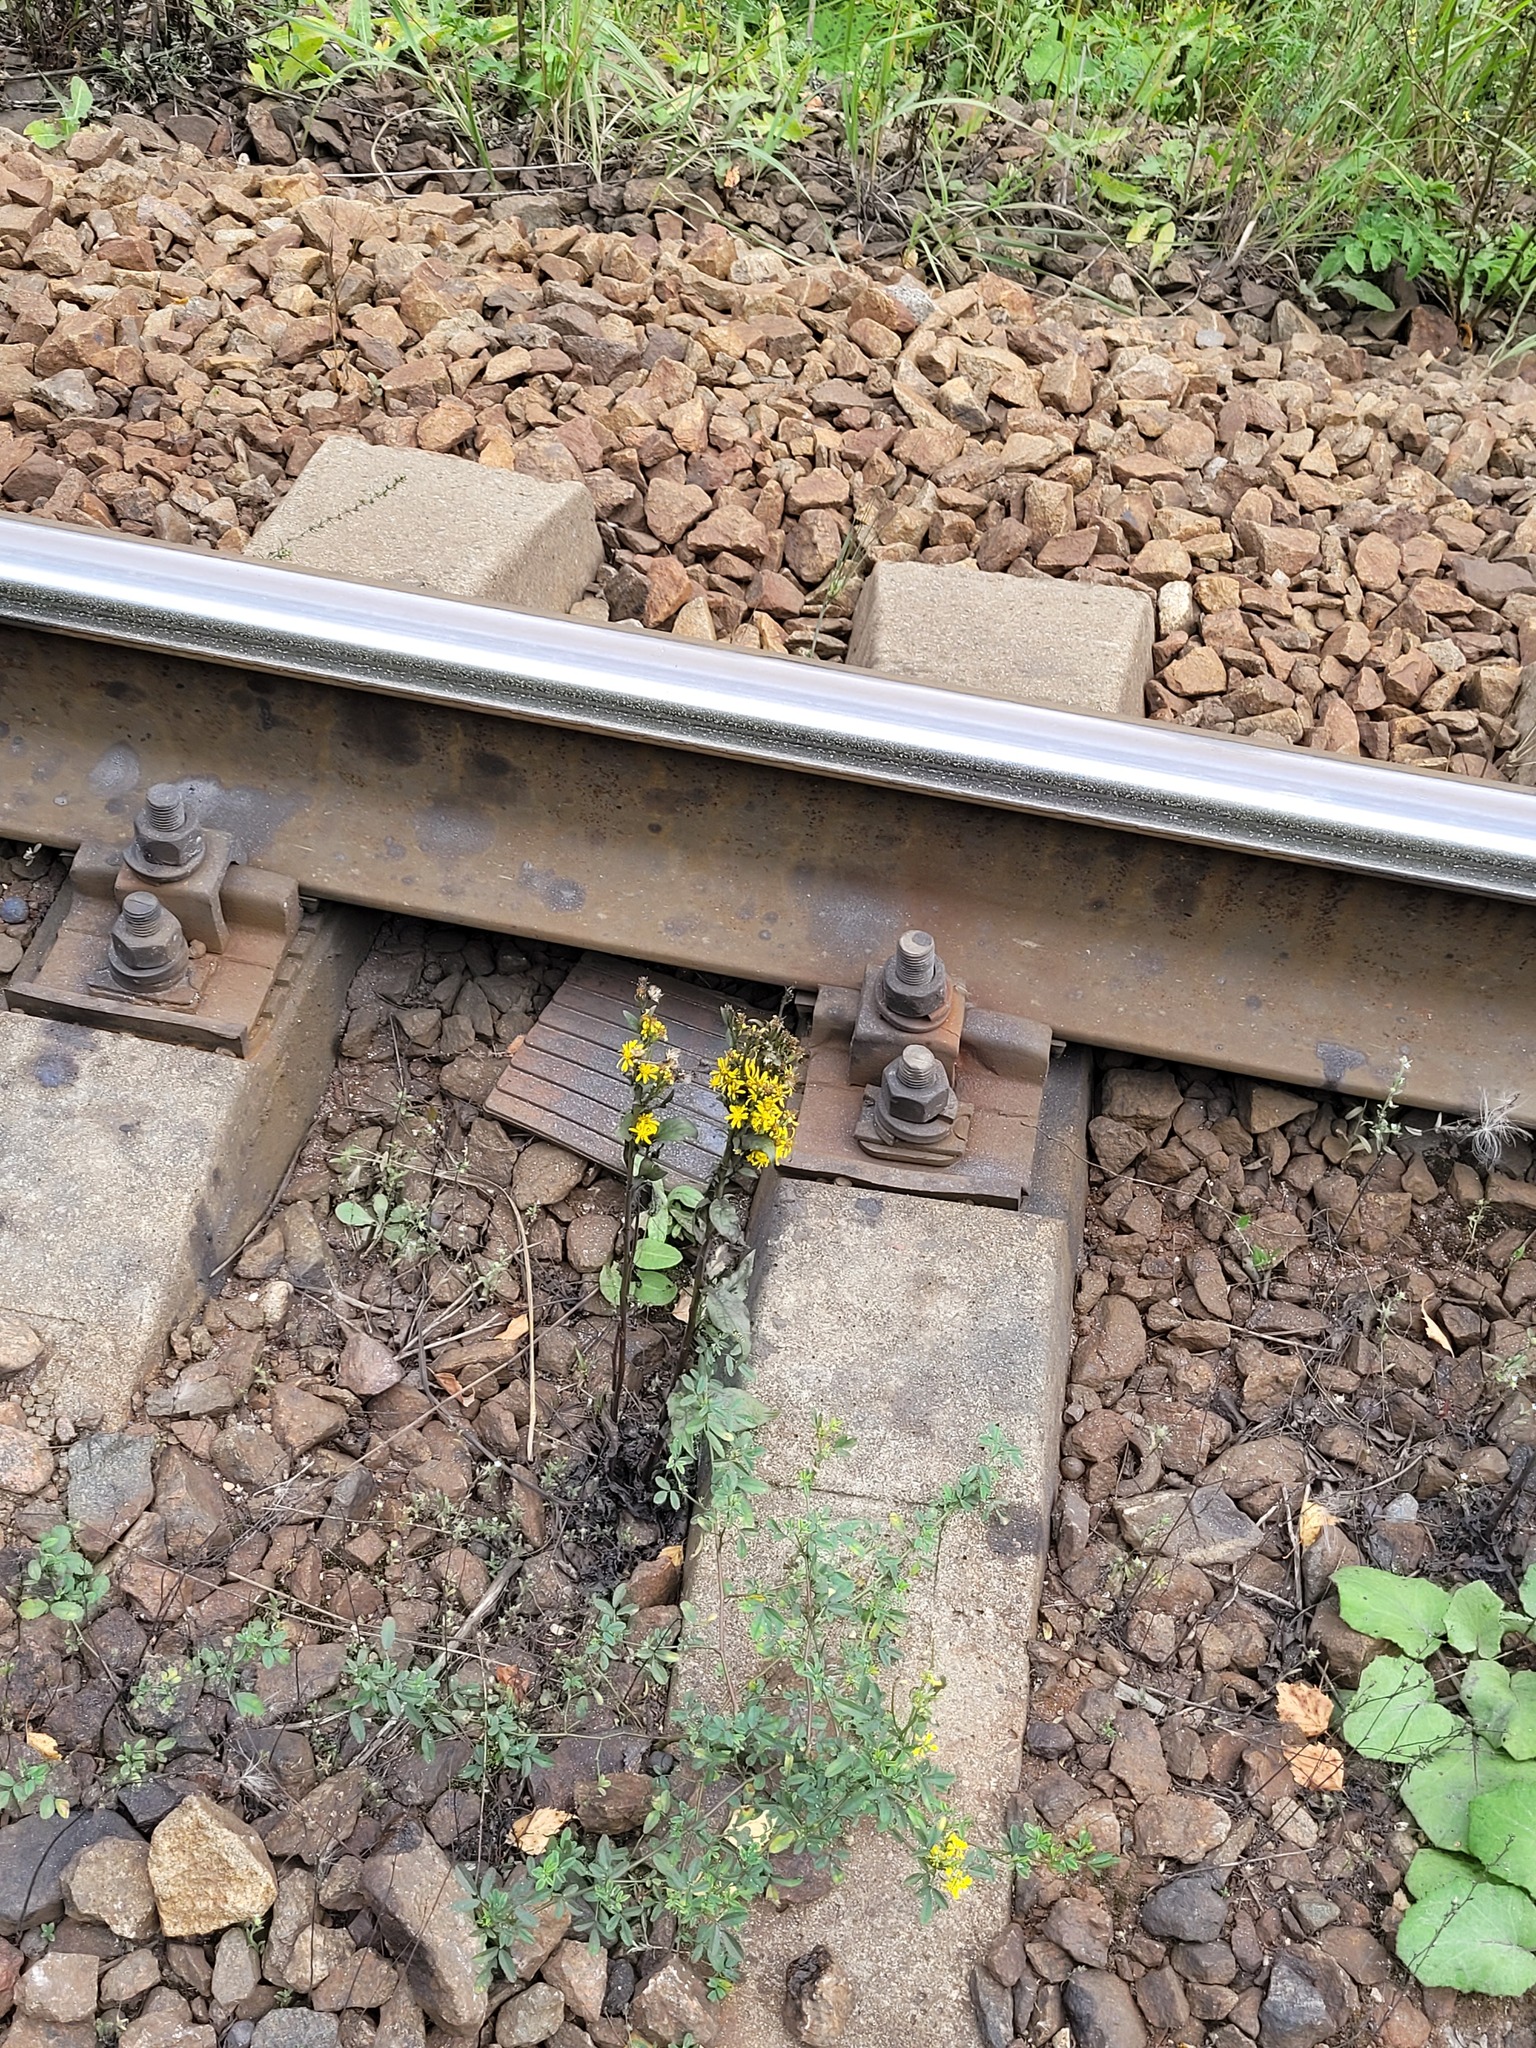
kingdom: Plantae
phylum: Tracheophyta
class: Magnoliopsida
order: Asterales
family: Asteraceae
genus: Solidago
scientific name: Solidago virgaurea
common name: Goldenrod
